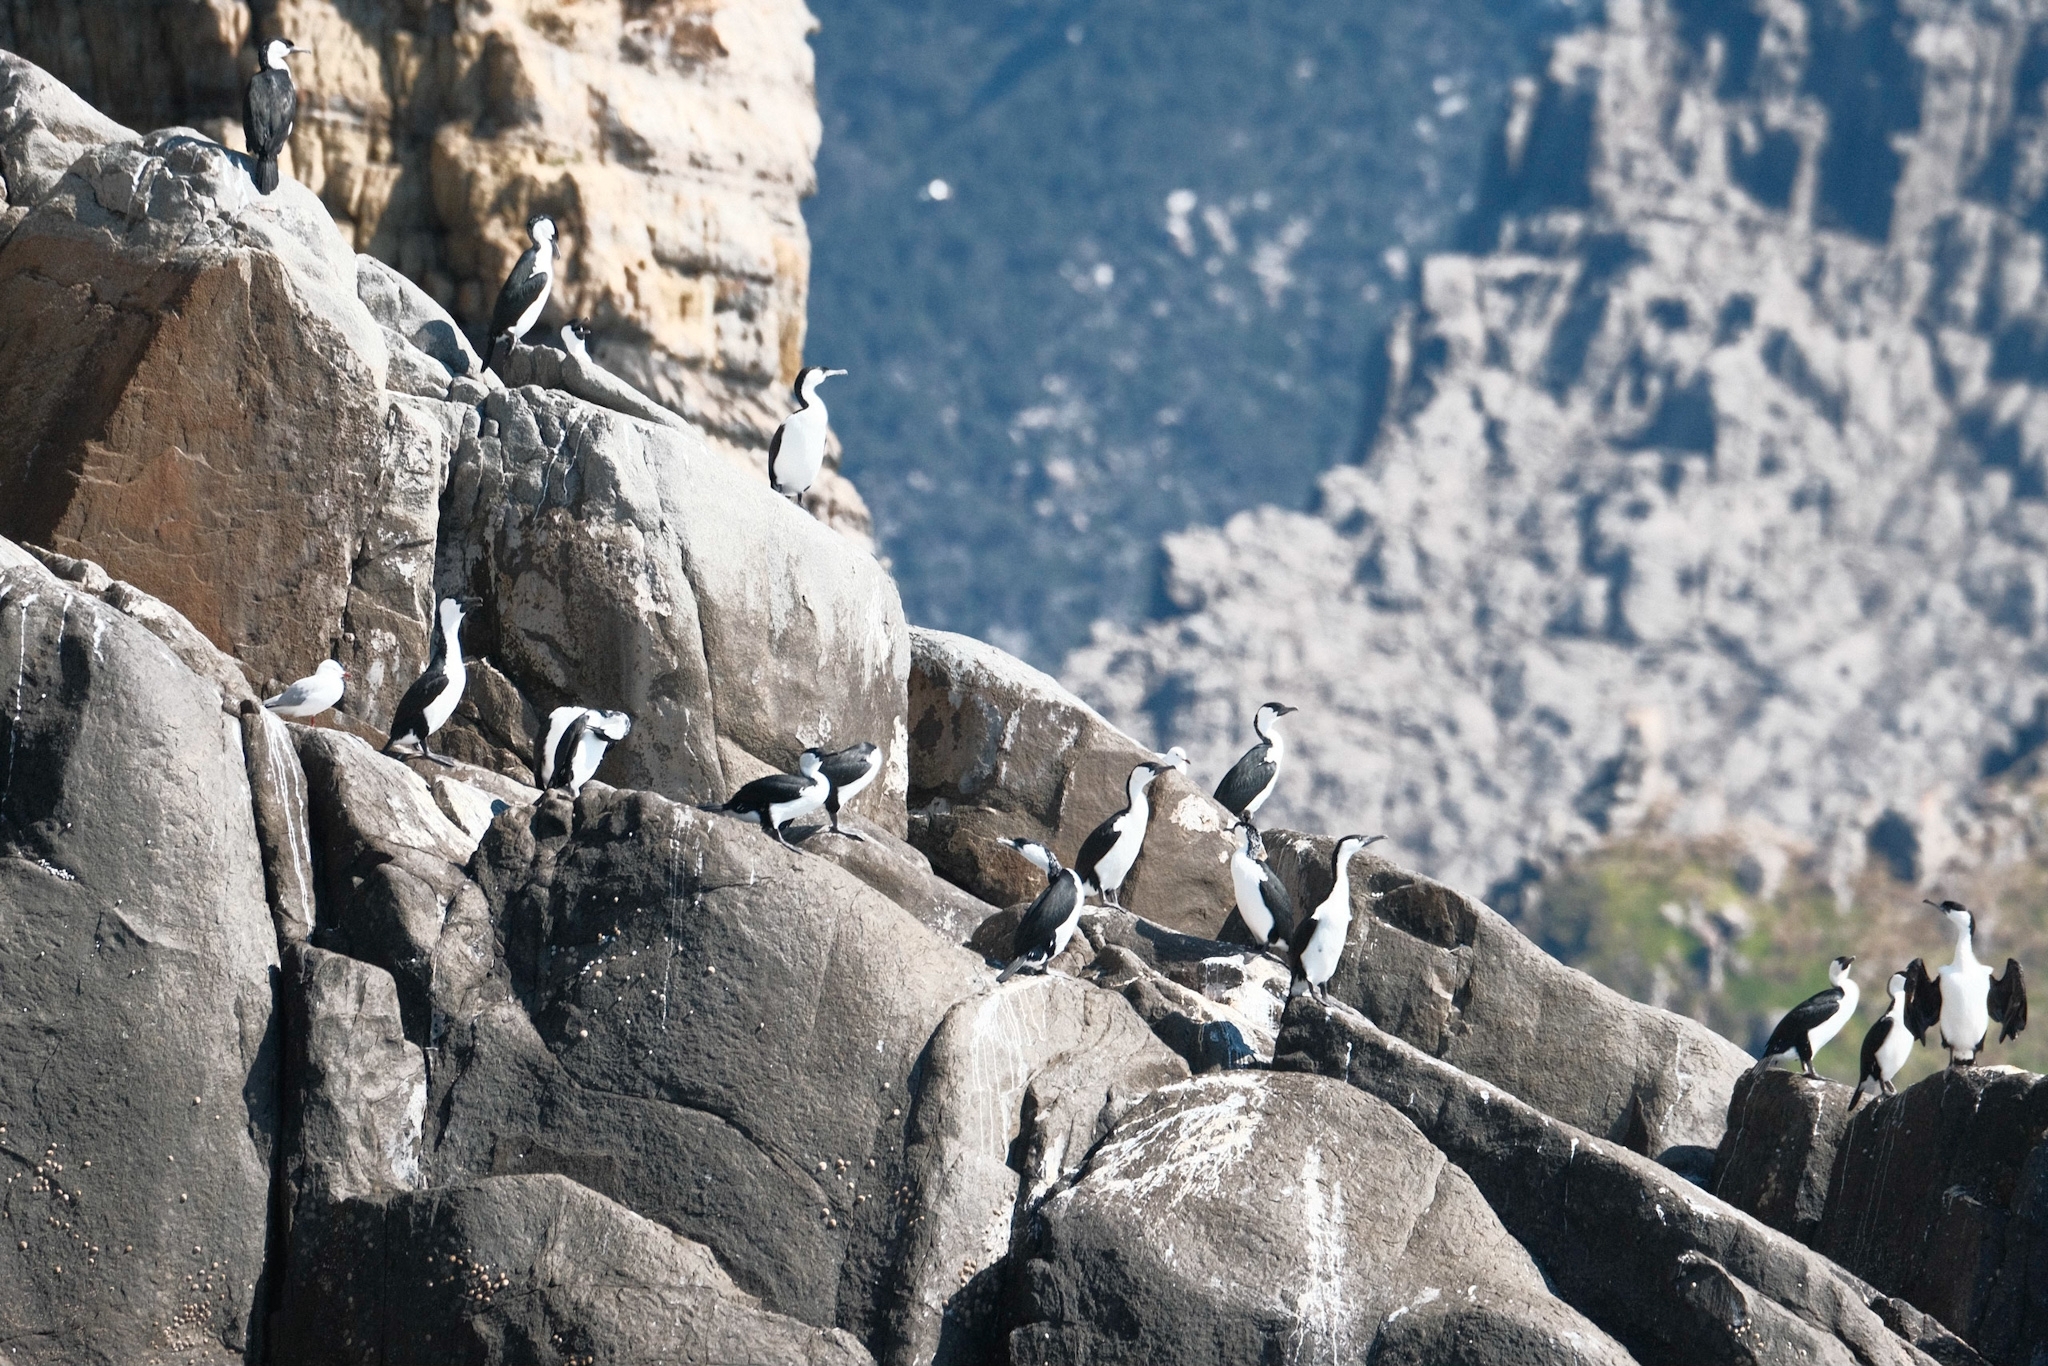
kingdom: Animalia
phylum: Chordata
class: Aves
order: Suliformes
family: Phalacrocoracidae
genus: Phalacrocorax
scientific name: Phalacrocorax fuscescens
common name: Black-faced cormorant
